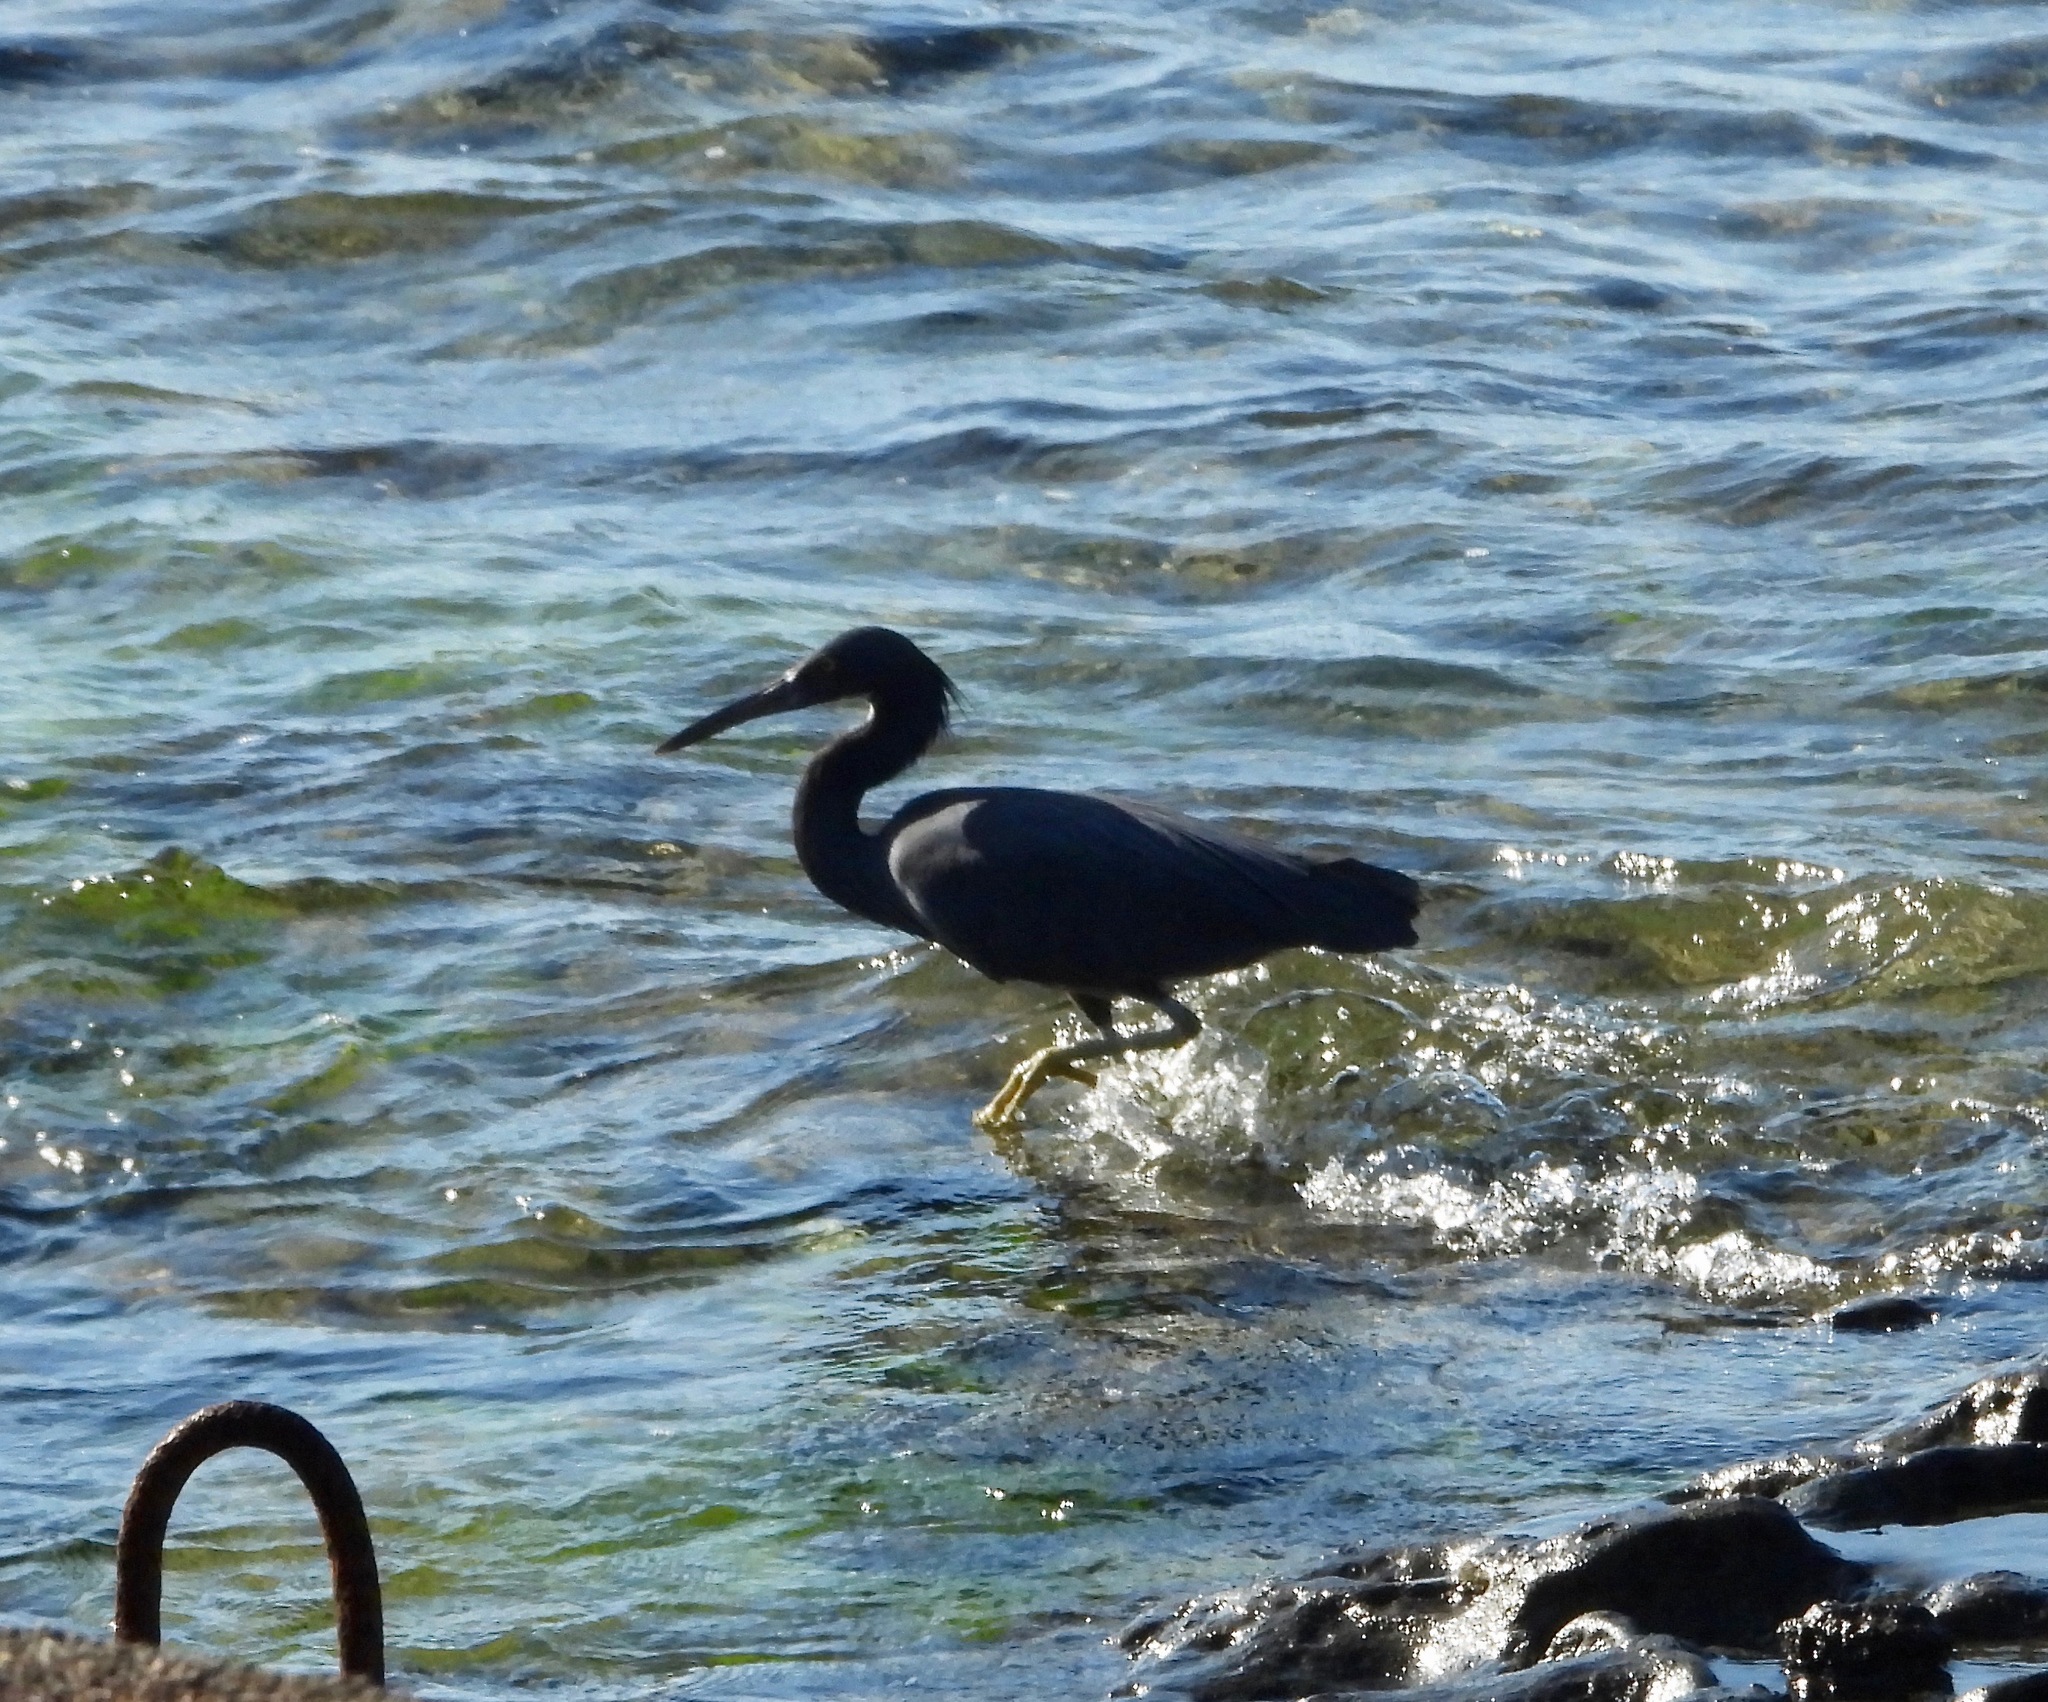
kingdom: Animalia
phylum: Chordata
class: Aves
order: Pelecaniformes
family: Ardeidae
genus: Egretta
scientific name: Egretta sacra
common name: Pacific reef heron
